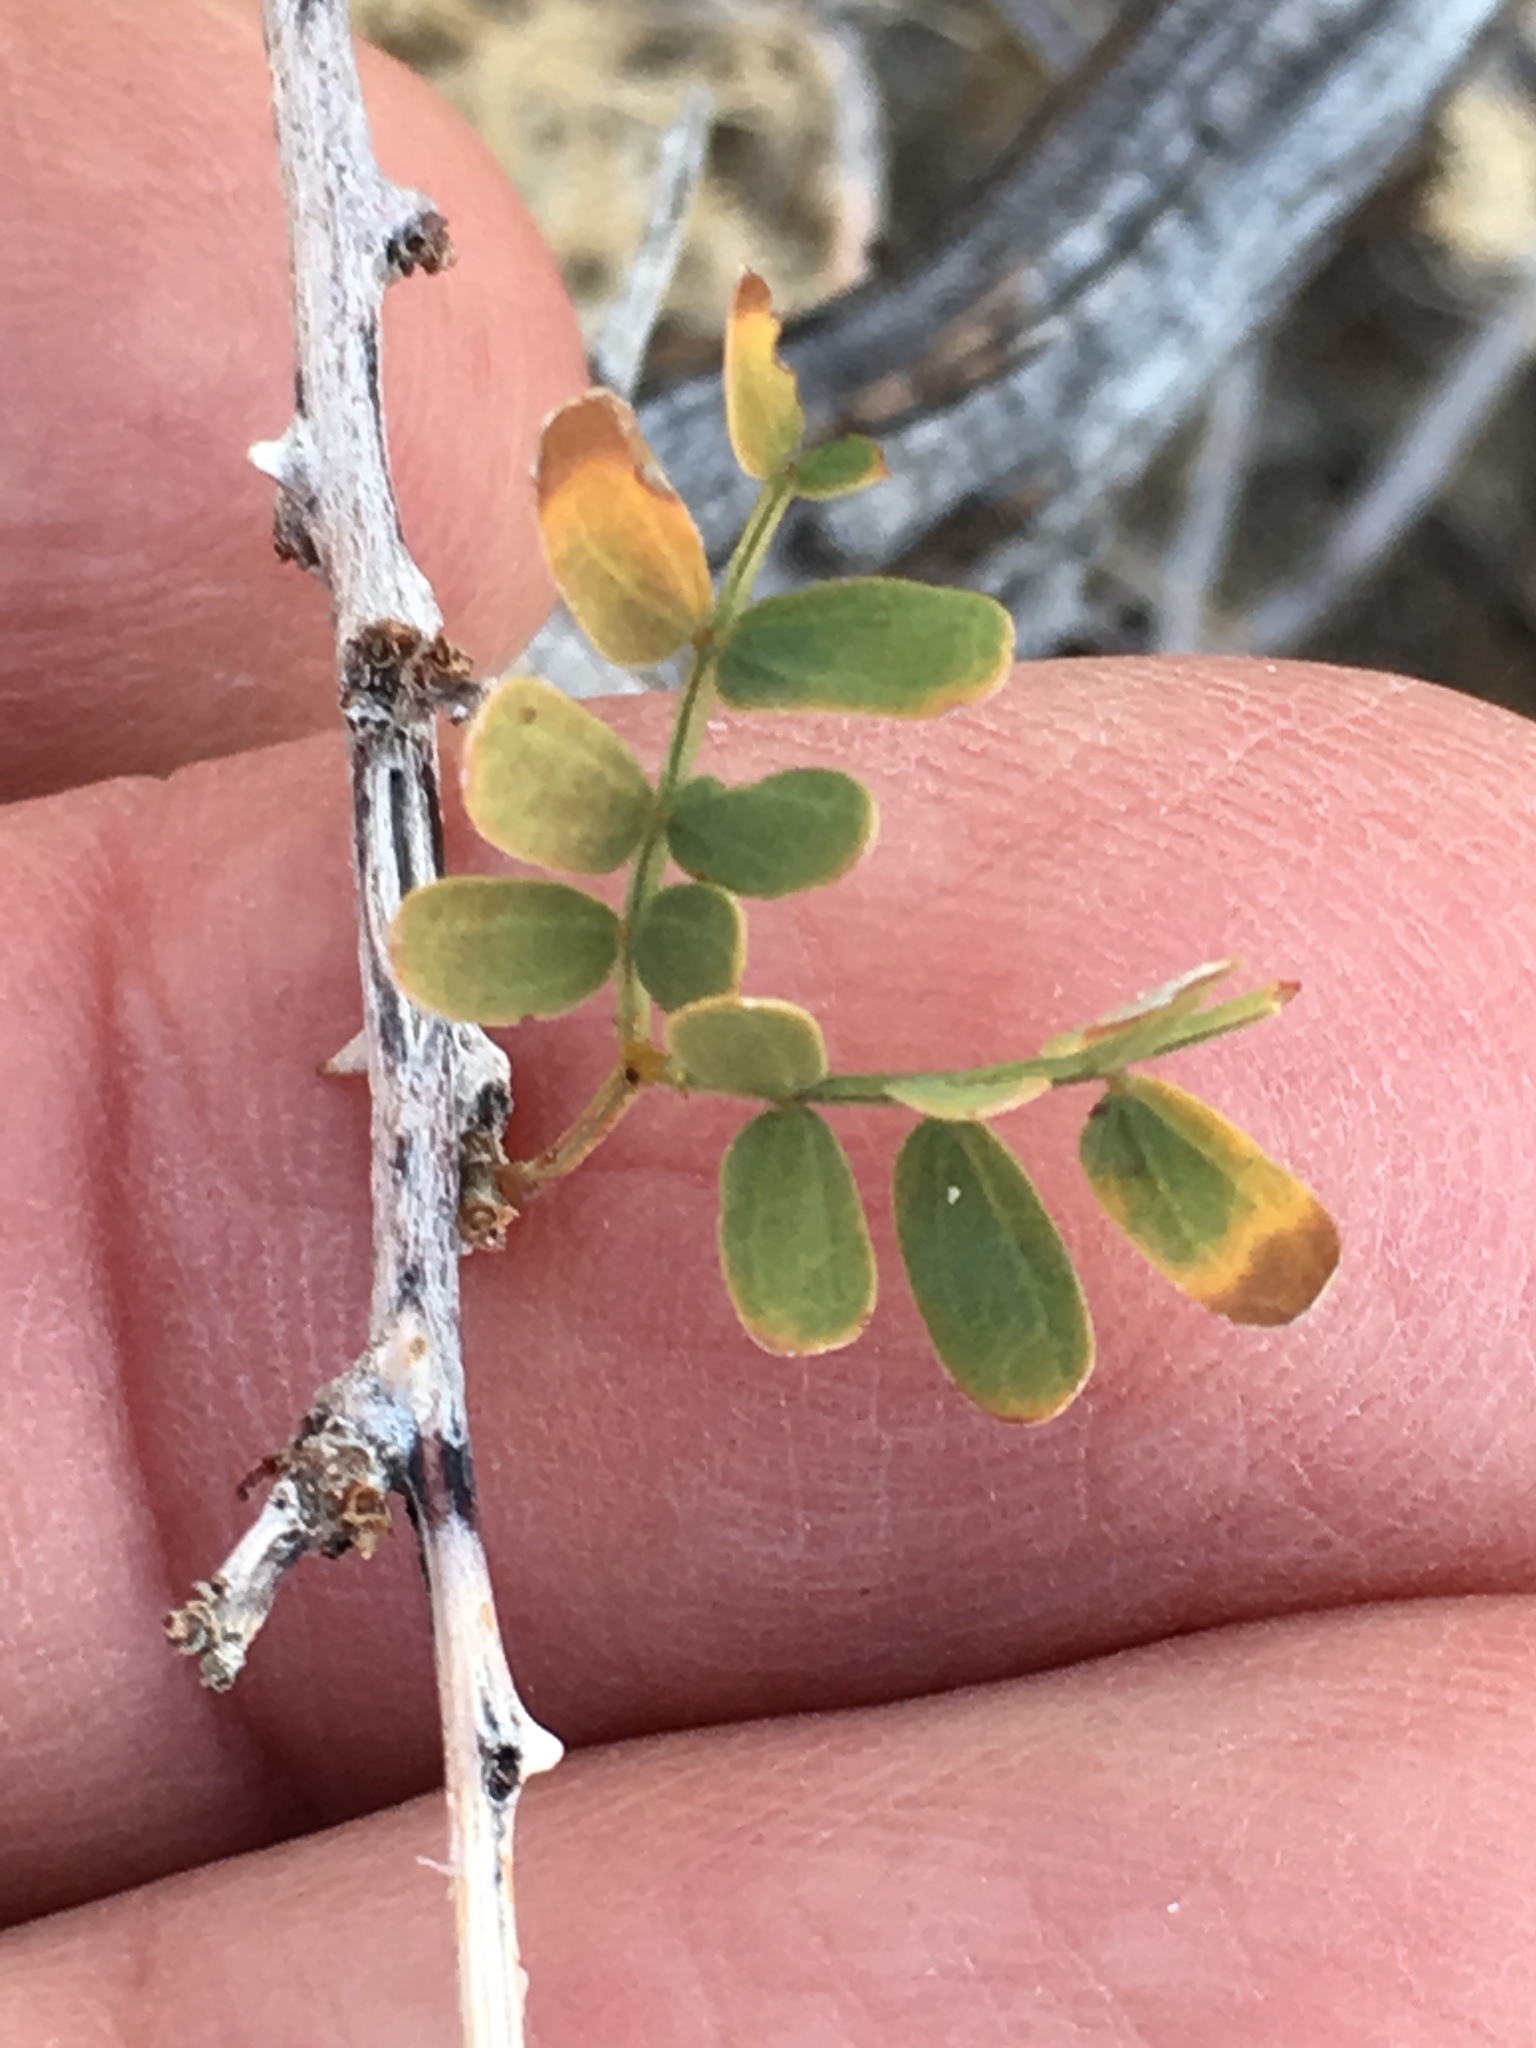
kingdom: Plantae
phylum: Tracheophyta
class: Magnoliopsida
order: Fabales
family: Fabaceae
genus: Senegalia
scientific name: Senegalia greggii
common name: Texas-mimosa
